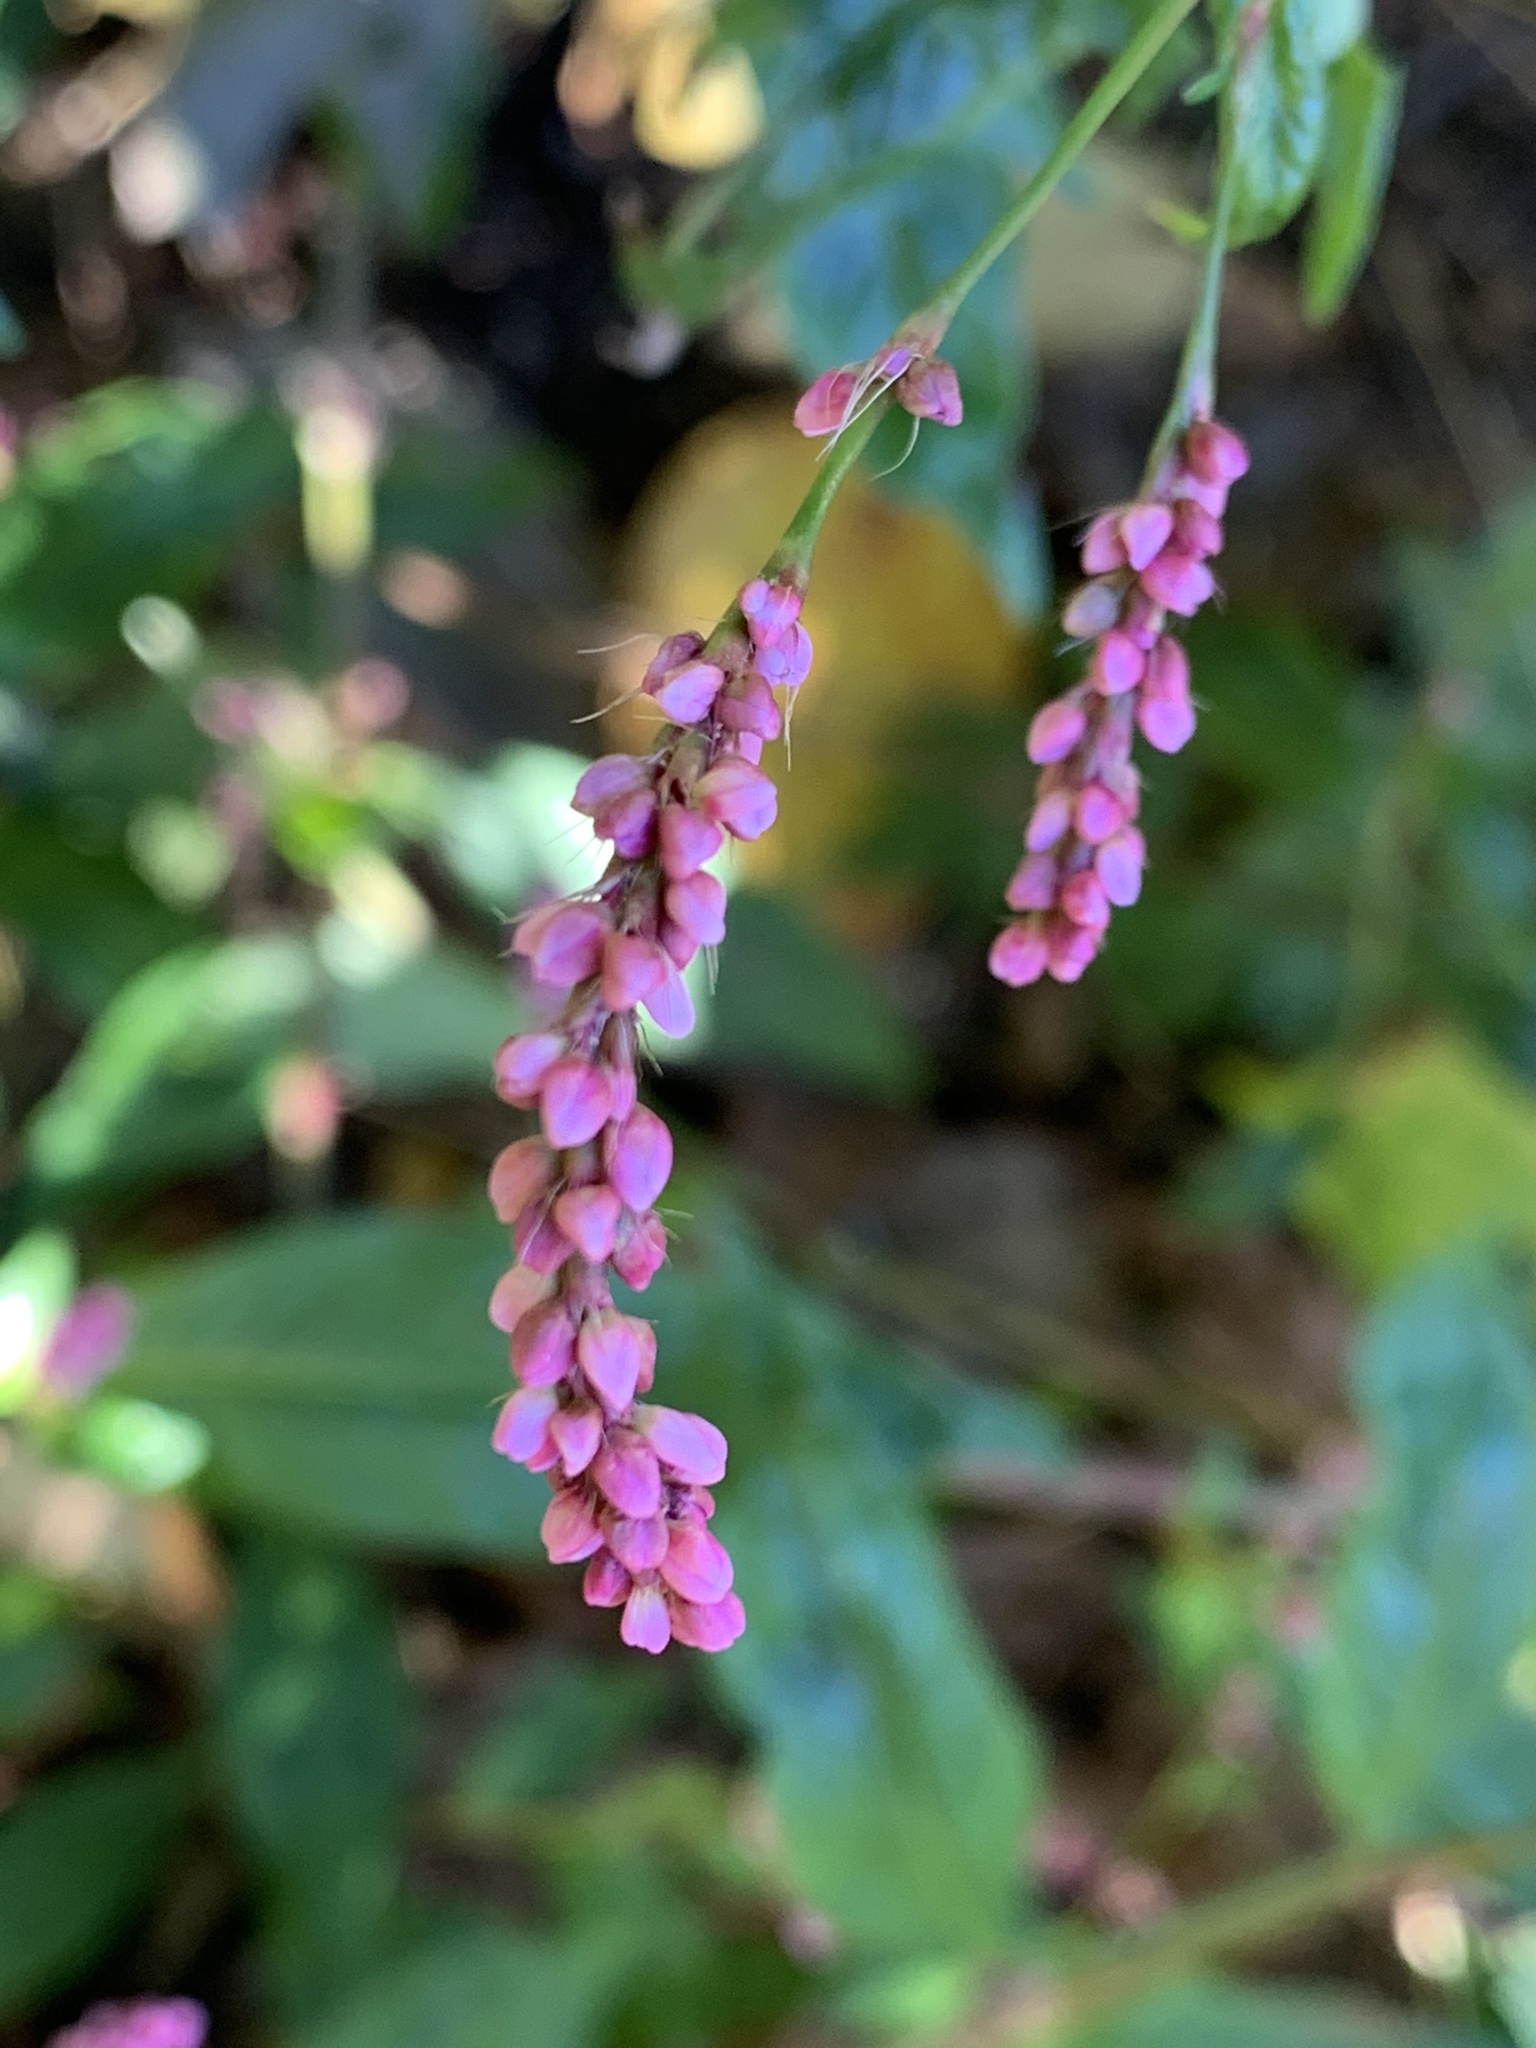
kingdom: Plantae
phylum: Tracheophyta
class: Magnoliopsida
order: Caryophyllales
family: Polygonaceae
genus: Persicaria
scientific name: Persicaria longiseta
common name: Bristly lady's-thumb
